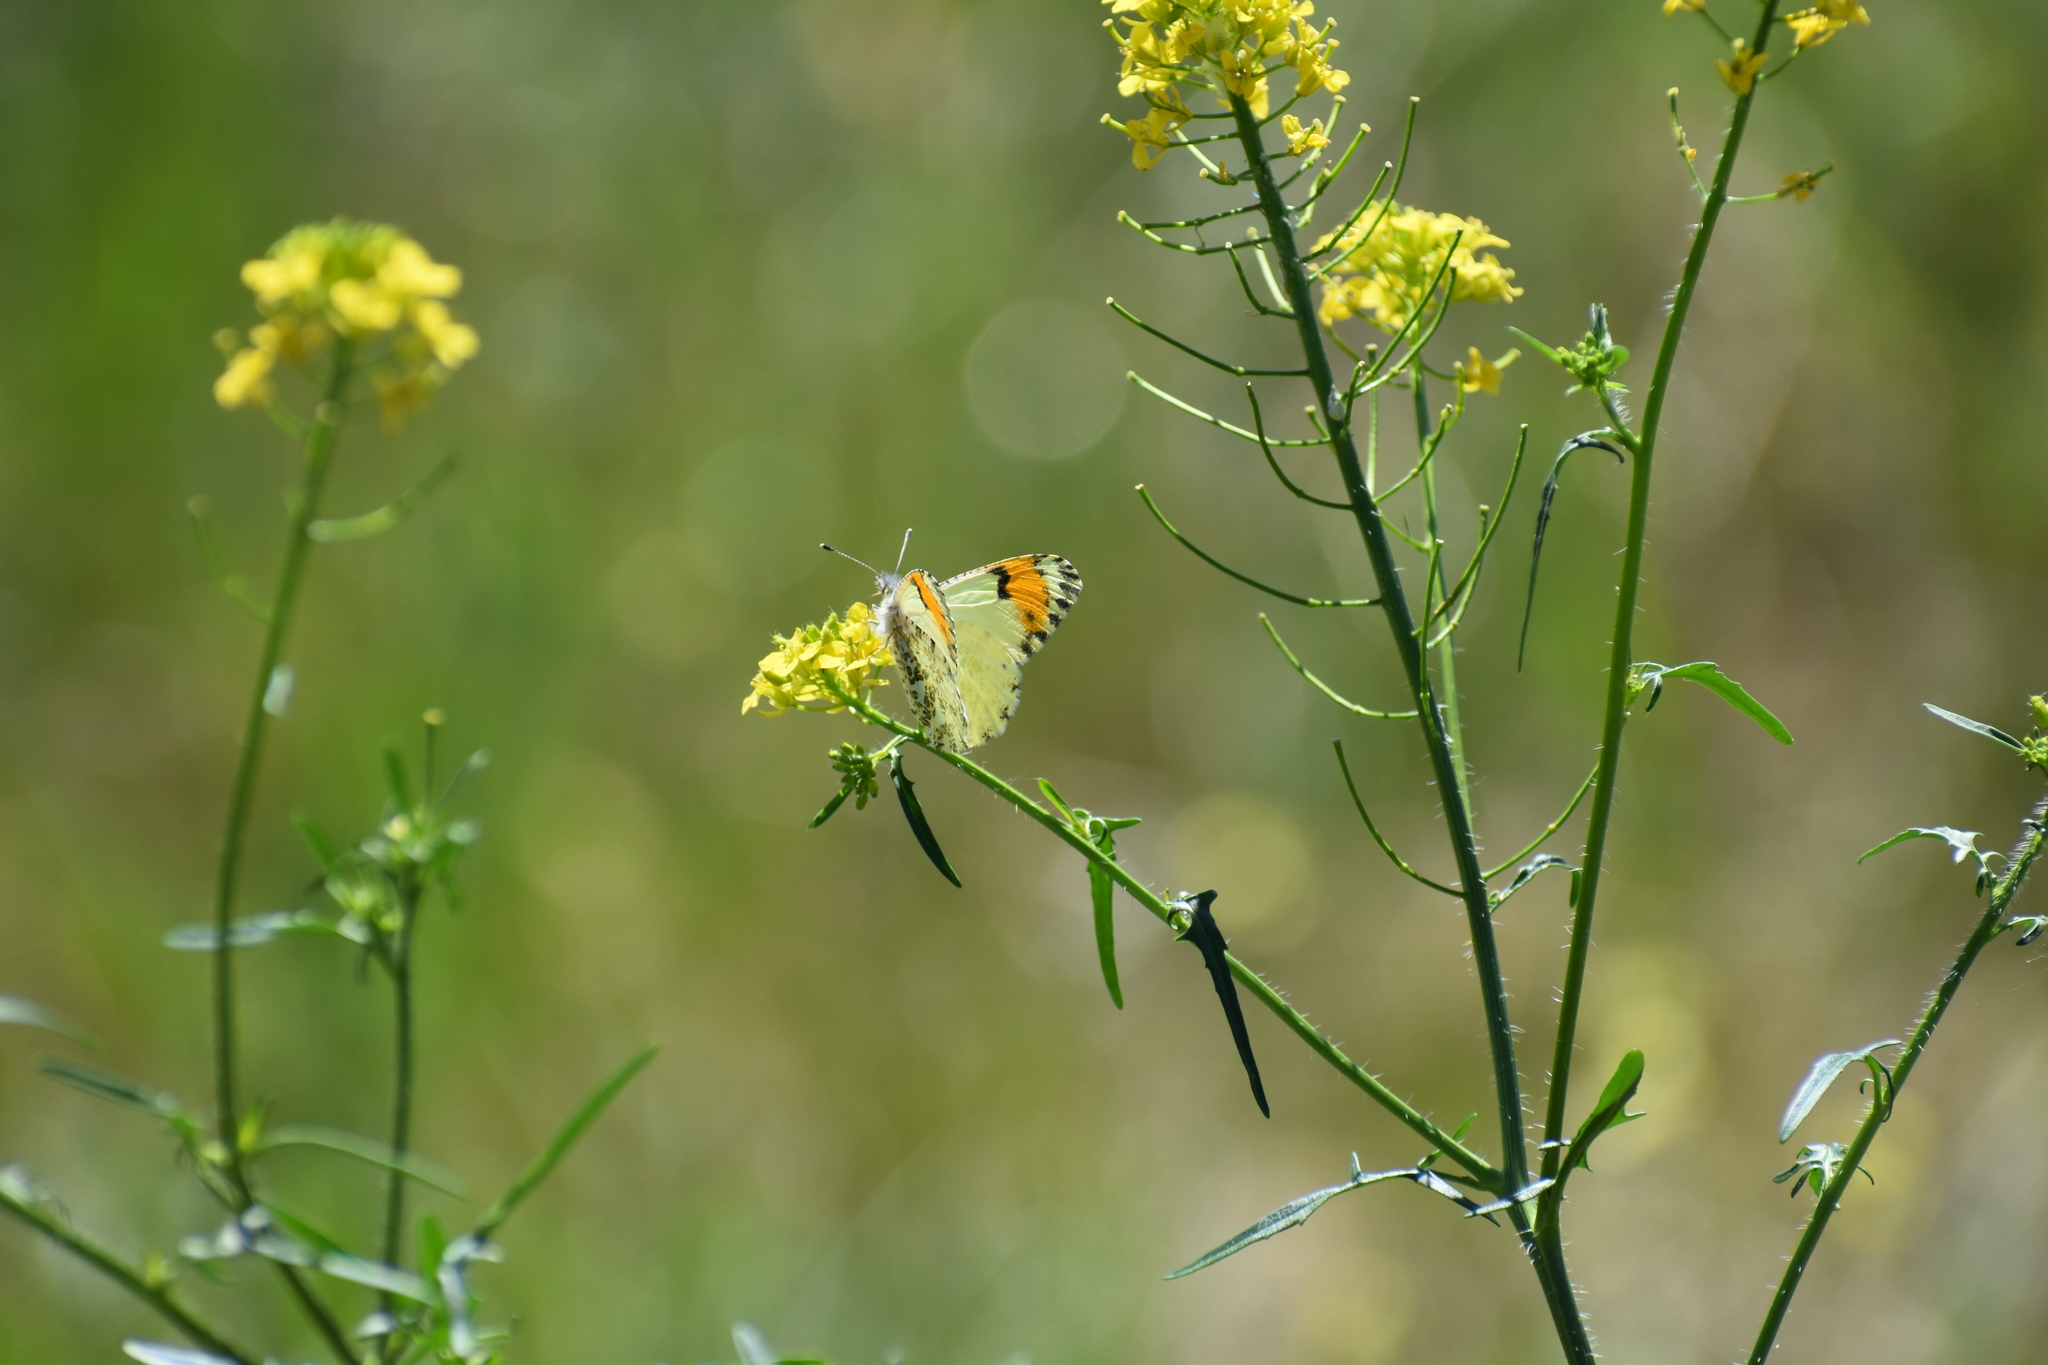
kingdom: Animalia
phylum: Arthropoda
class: Insecta
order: Lepidoptera
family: Pieridae
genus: Anthocharis
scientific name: Anthocharis julia
